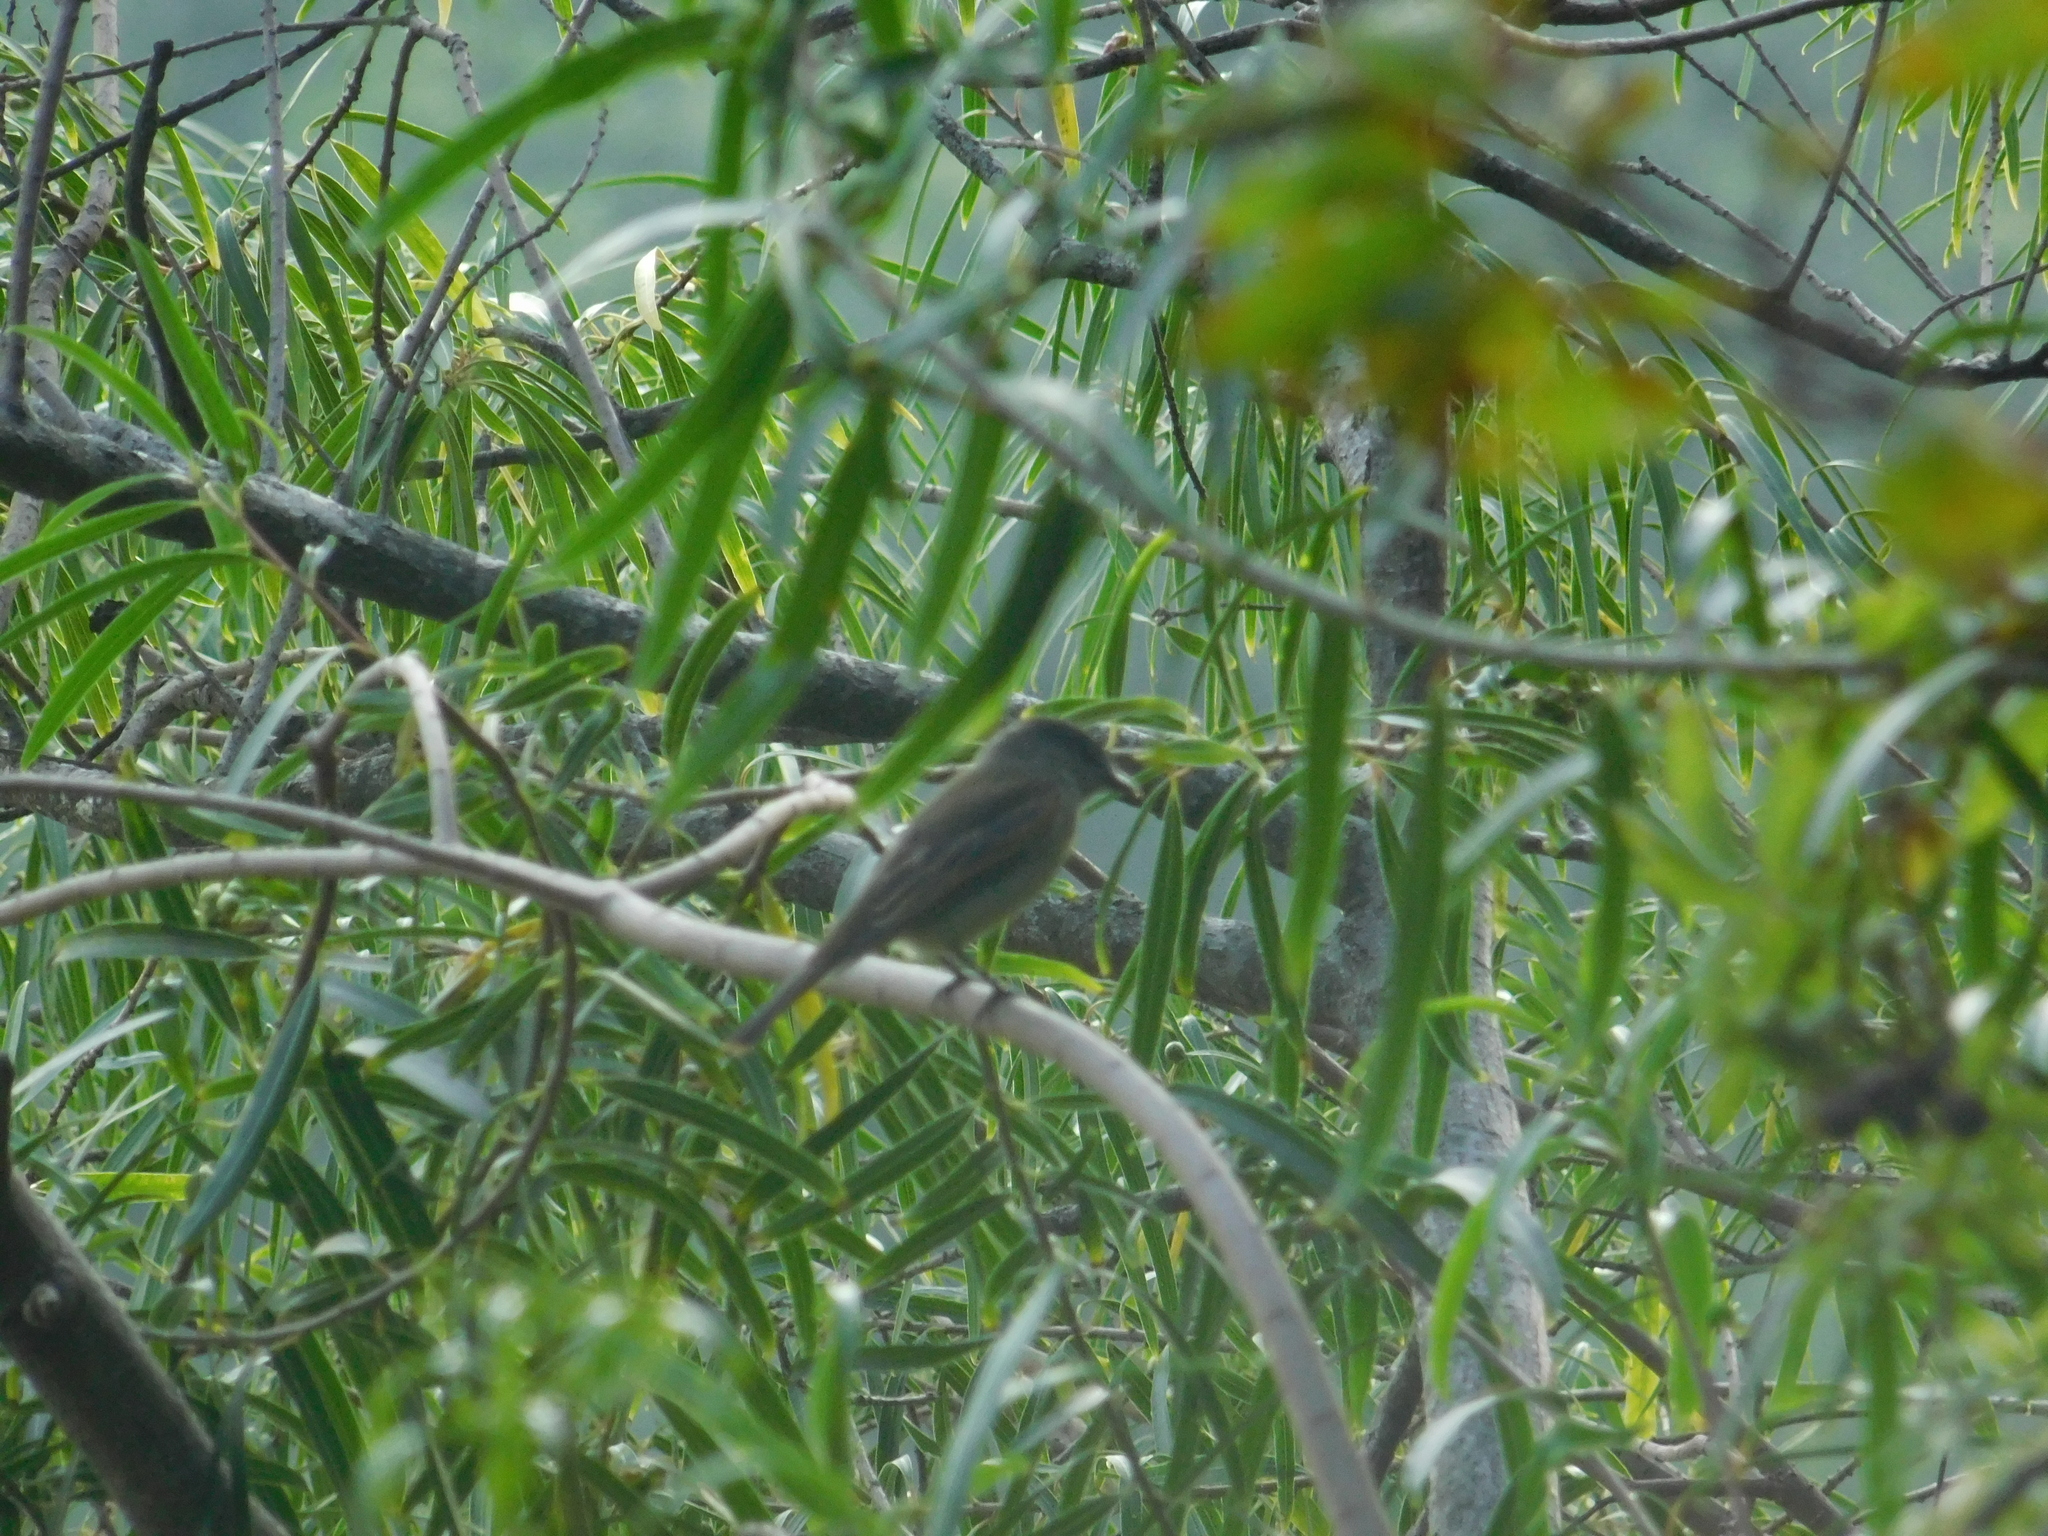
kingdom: Animalia
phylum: Chordata
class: Aves
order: Passeriformes
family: Cotingidae
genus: Pachyramphus
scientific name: Pachyramphus polychopterus
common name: White-winged becard
